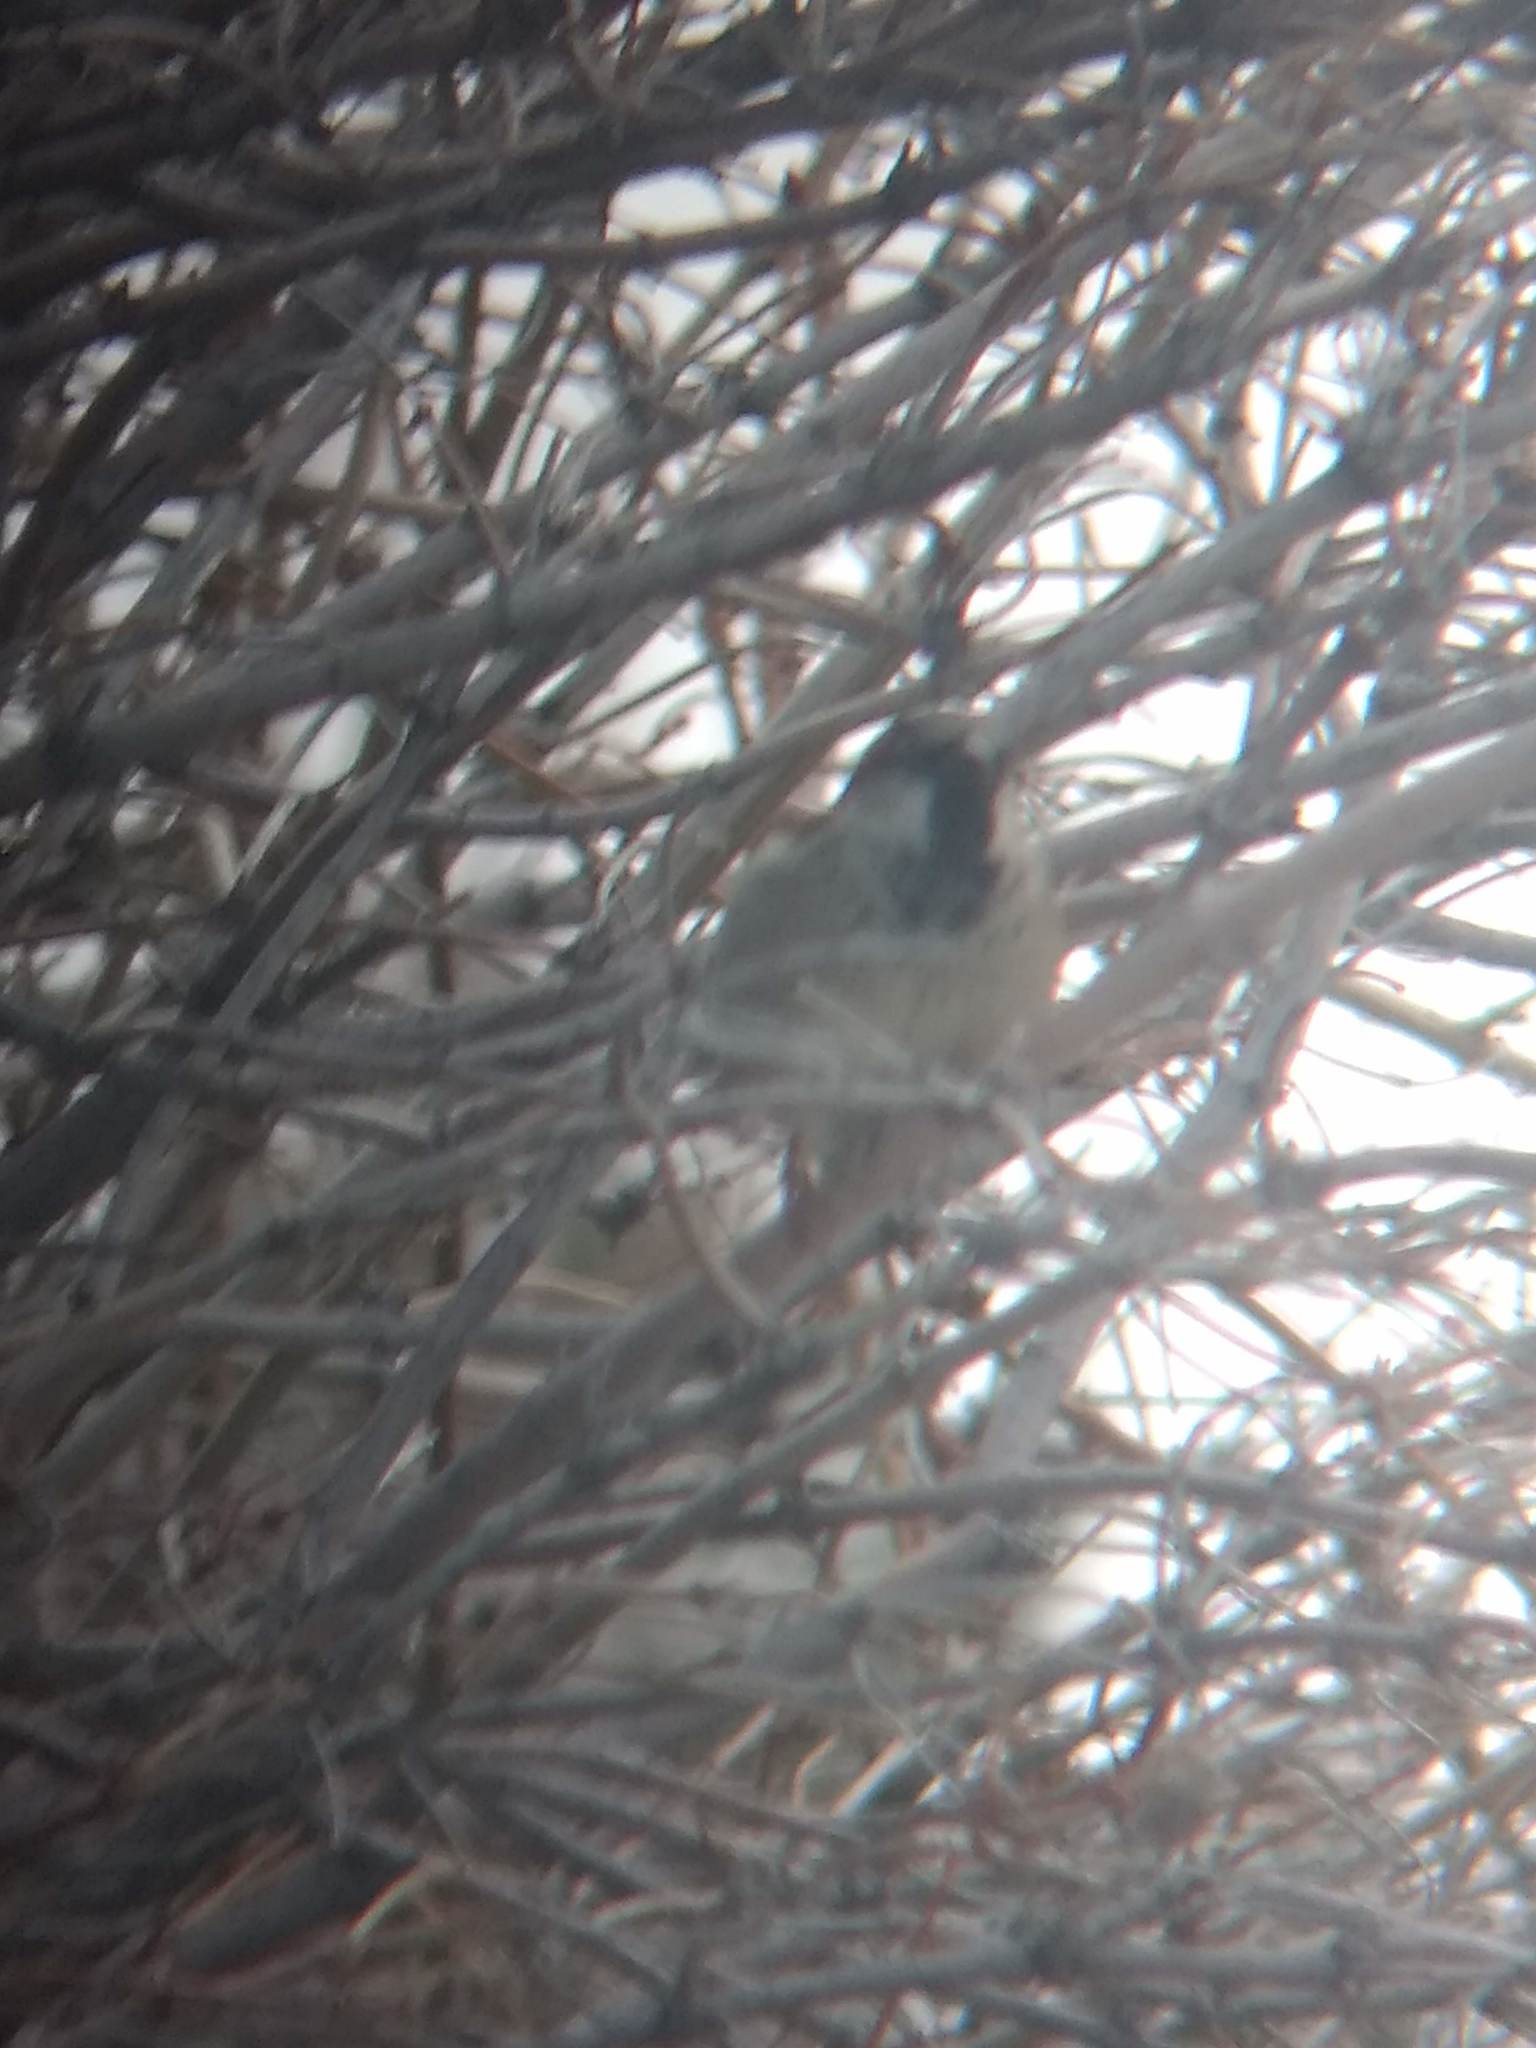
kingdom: Animalia
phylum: Chordata
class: Aves
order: Passeriformes
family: Passeridae
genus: Passer
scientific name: Passer domesticus
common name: House sparrow
